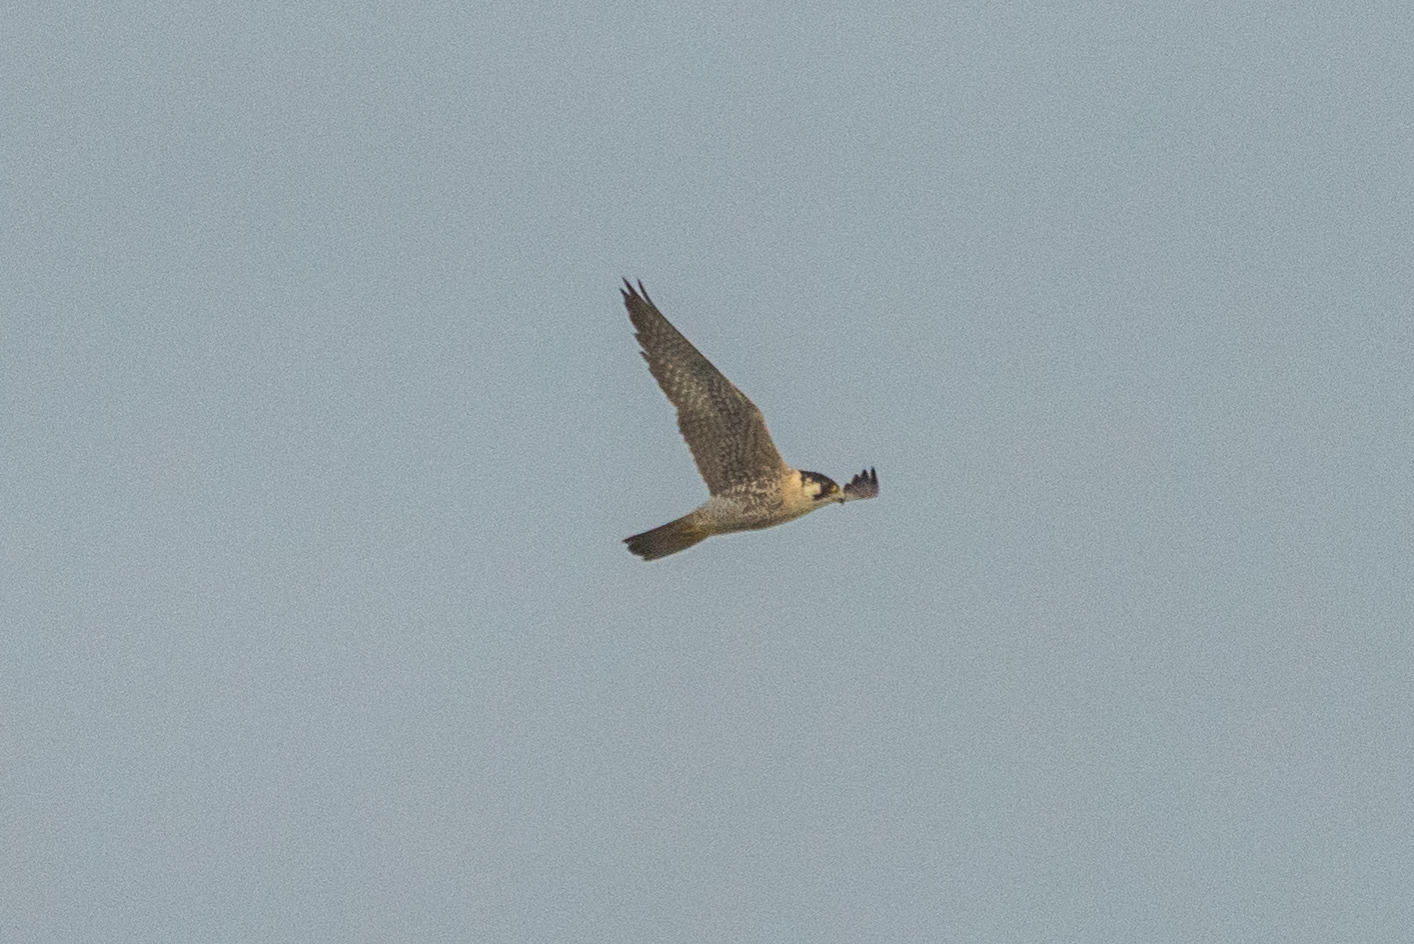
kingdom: Animalia
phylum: Chordata
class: Aves
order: Falconiformes
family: Falconidae
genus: Falco
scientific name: Falco peregrinus
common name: Peregrine falcon
